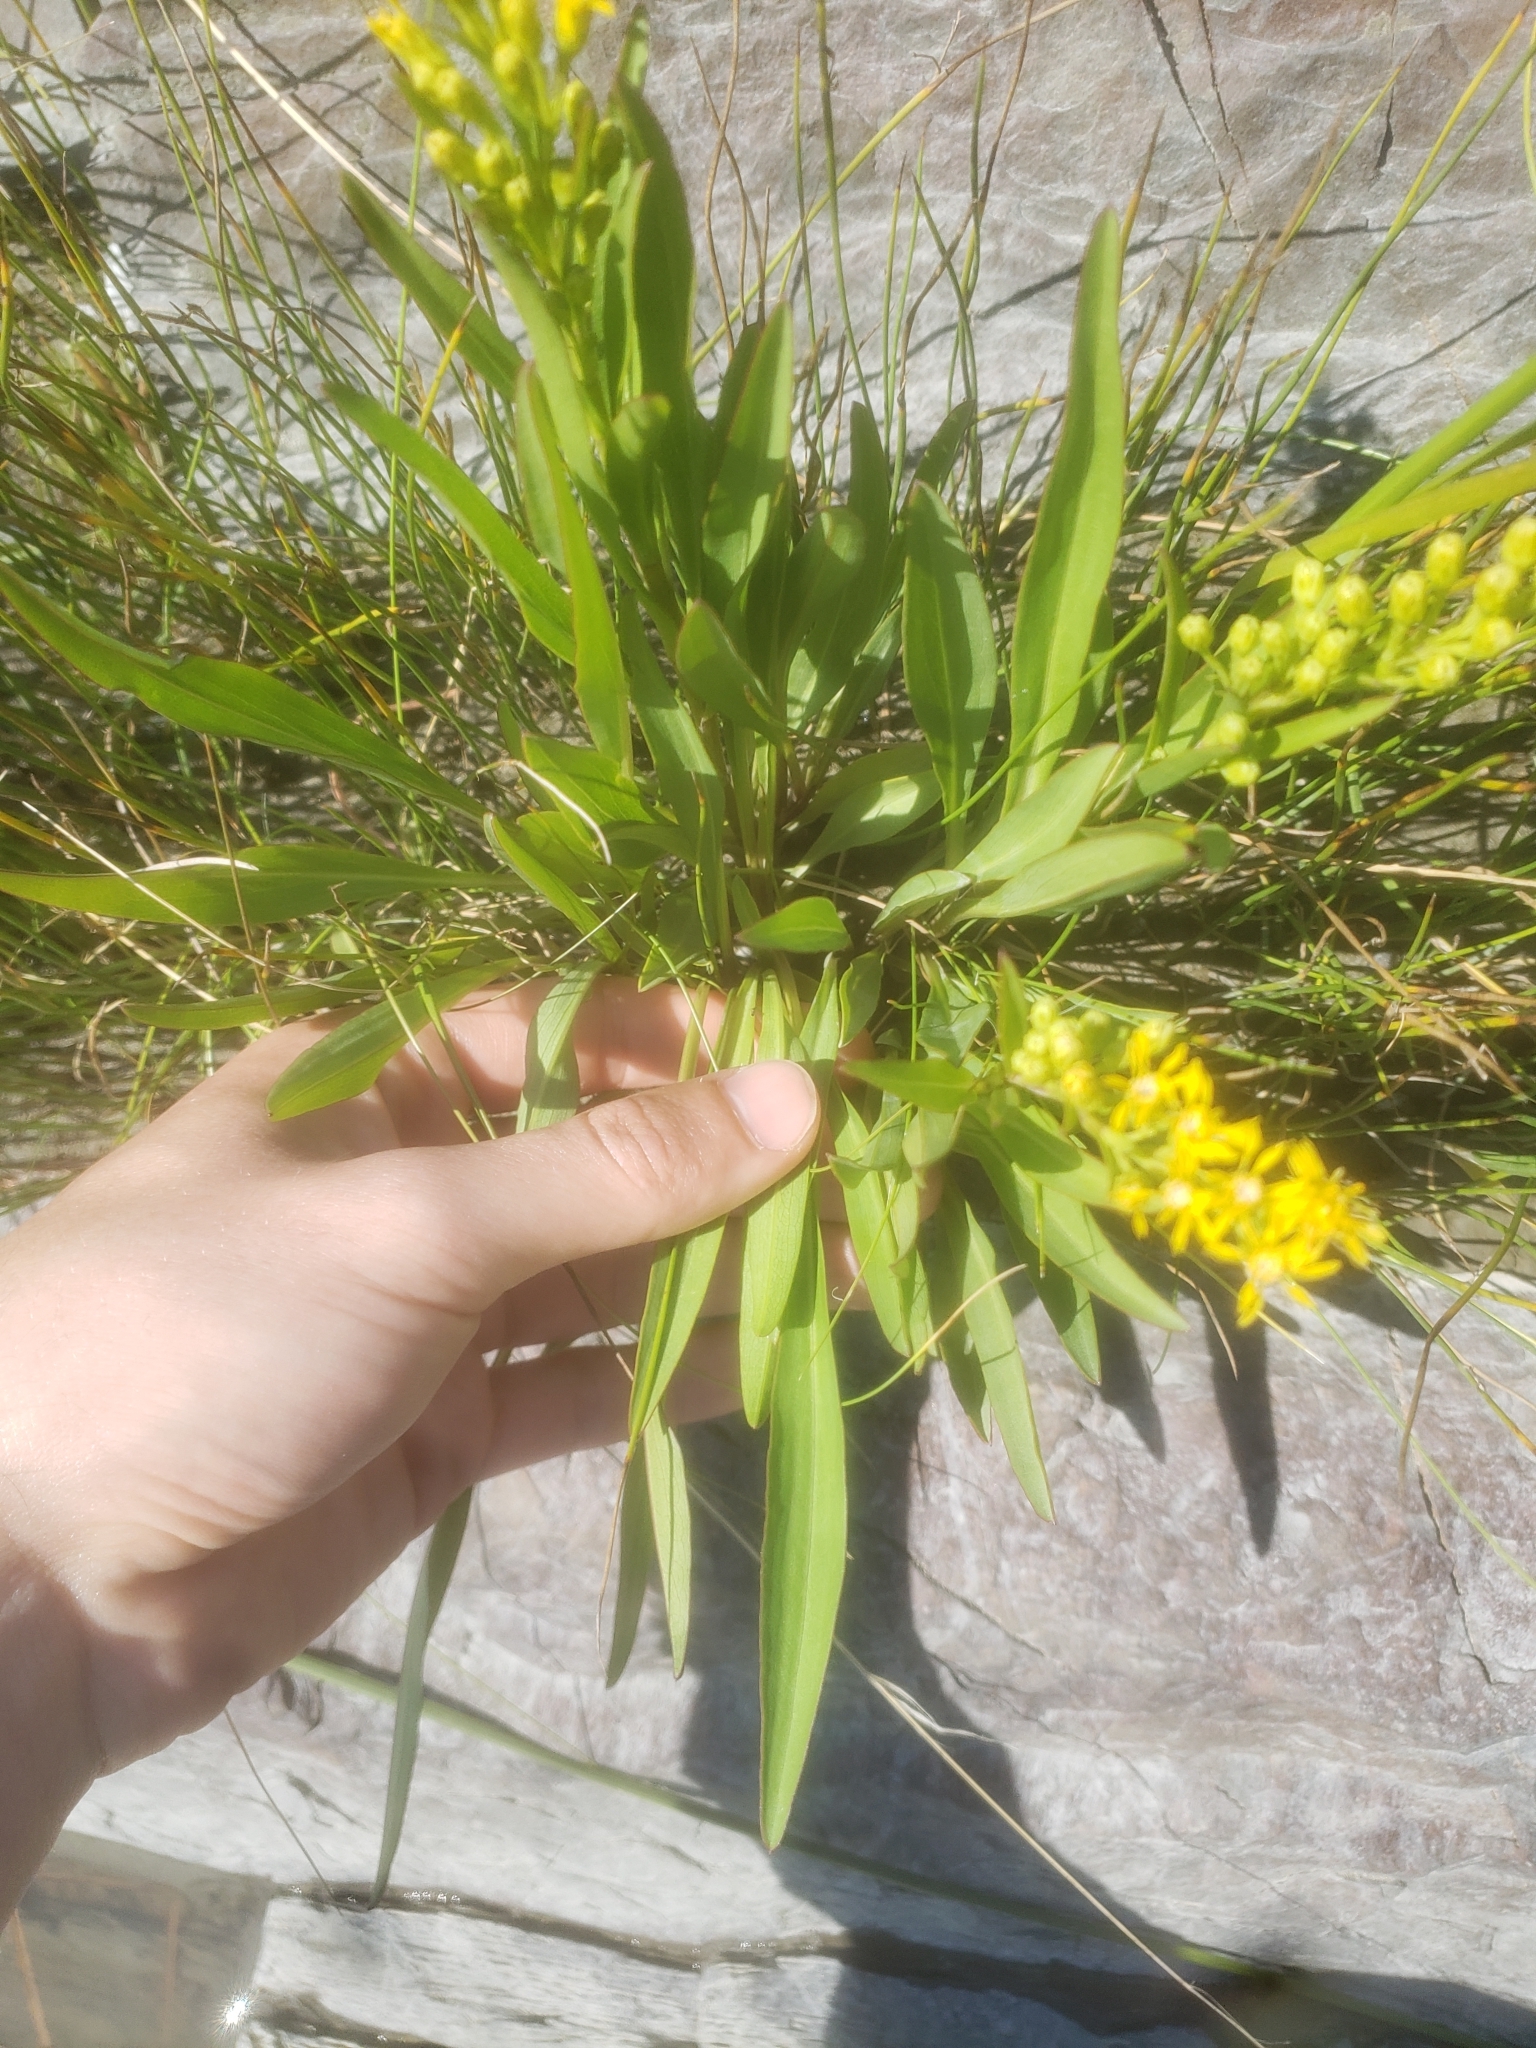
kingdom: Plantae
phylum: Tracheophyta
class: Magnoliopsida
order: Asterales
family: Asteraceae
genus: Solidago
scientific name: Solidago sempervirens
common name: Salt-marsh goldenrod
